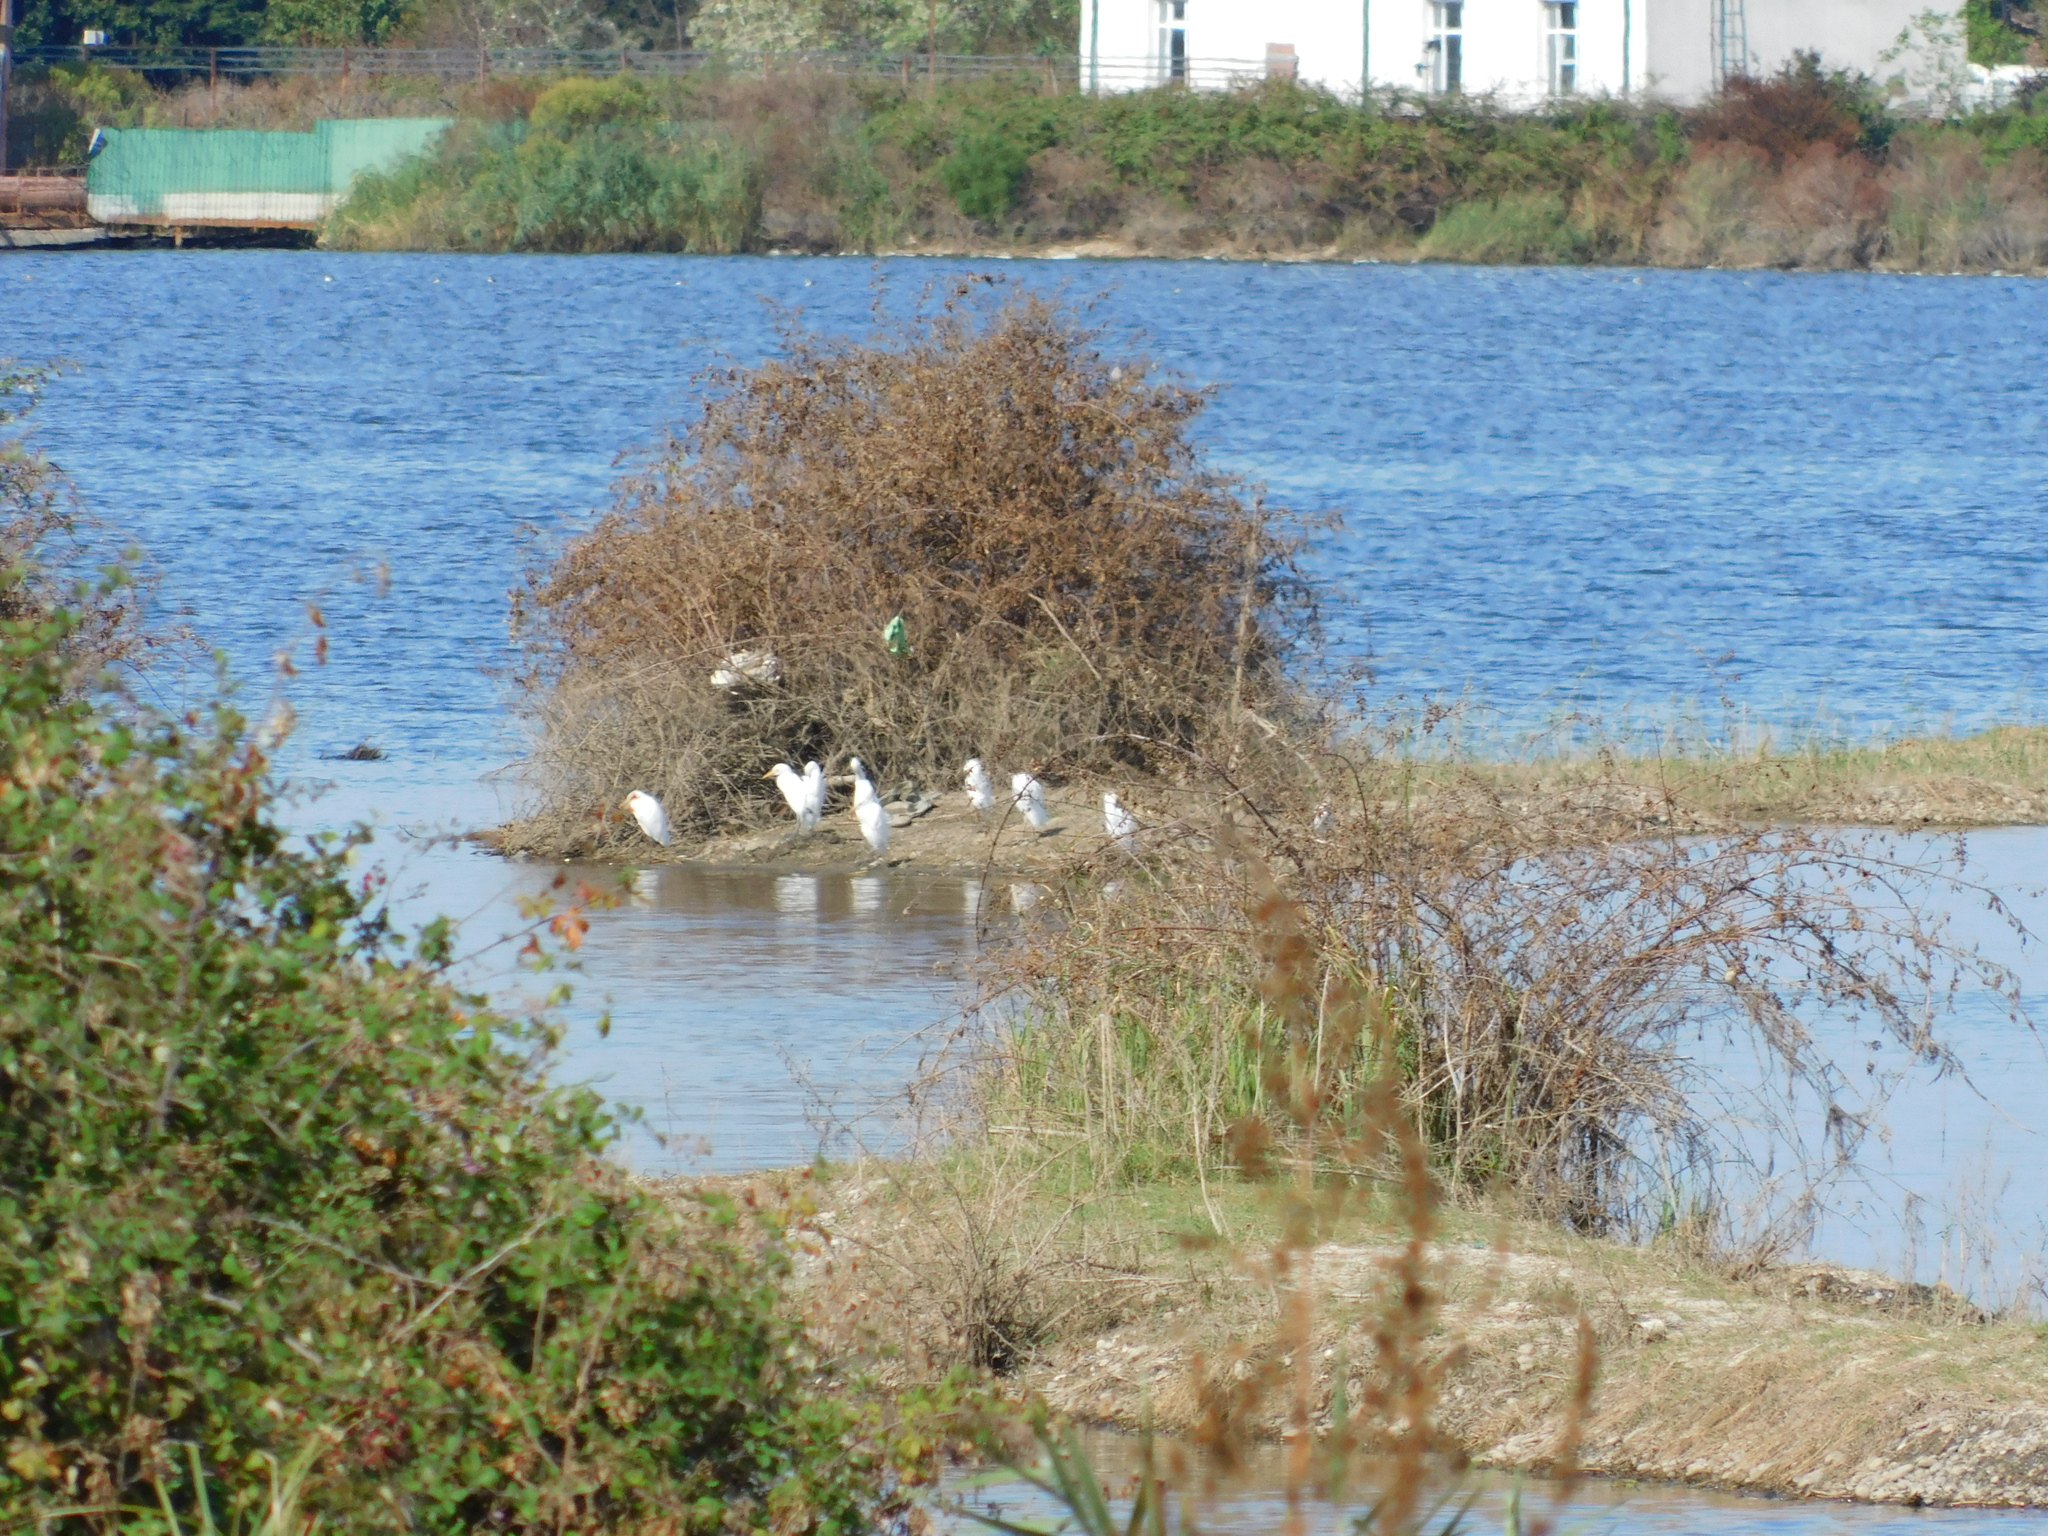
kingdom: Animalia
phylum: Chordata
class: Aves
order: Pelecaniformes
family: Ardeidae
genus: Bubulcus
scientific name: Bubulcus ibis
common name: Cattle egret
